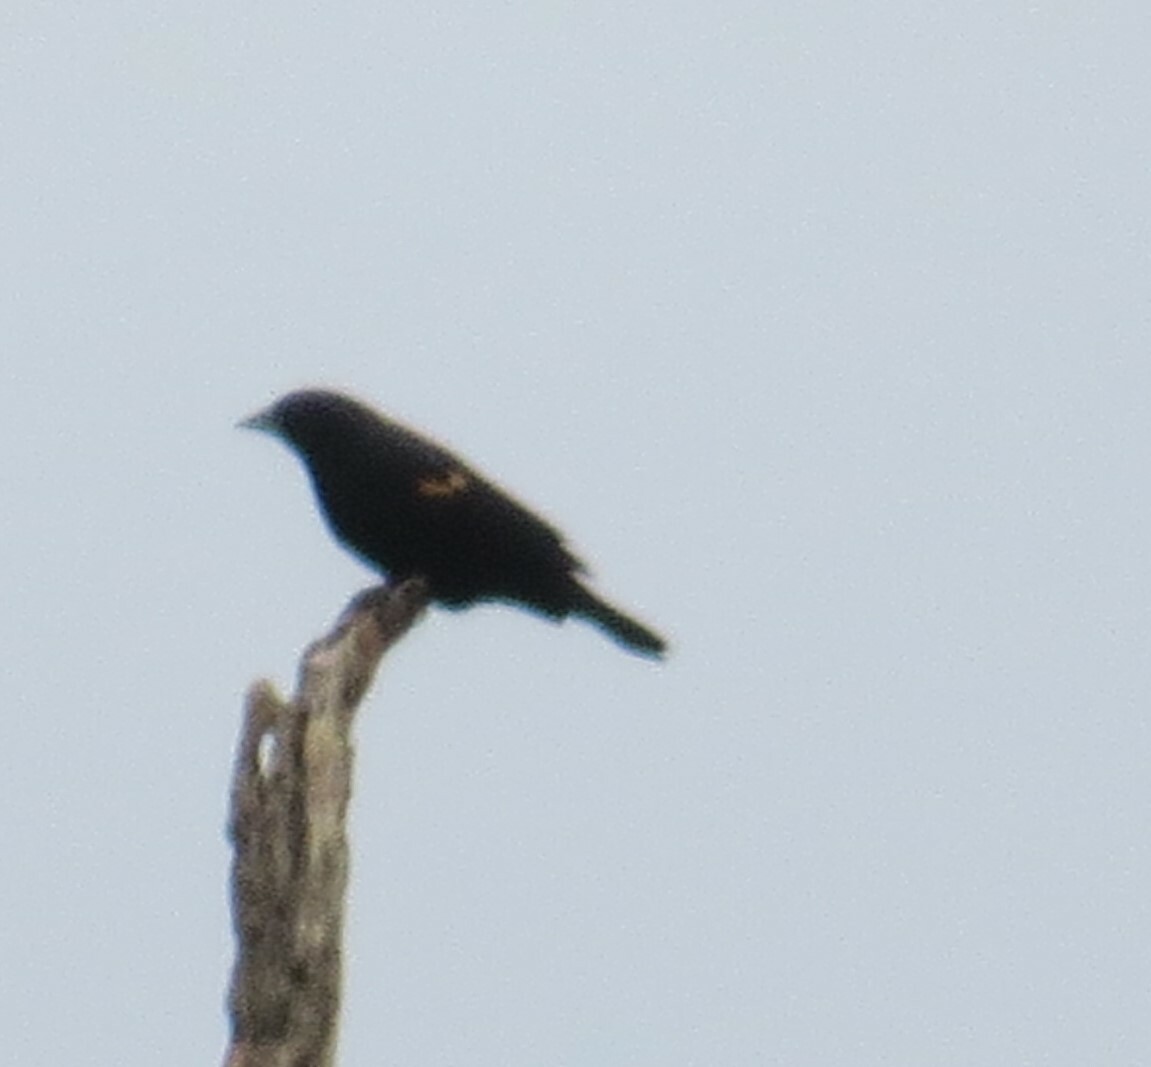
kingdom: Animalia
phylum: Chordata
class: Aves
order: Passeriformes
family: Icteridae
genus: Agelaius
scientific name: Agelaius phoeniceus
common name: Red-winged blackbird
